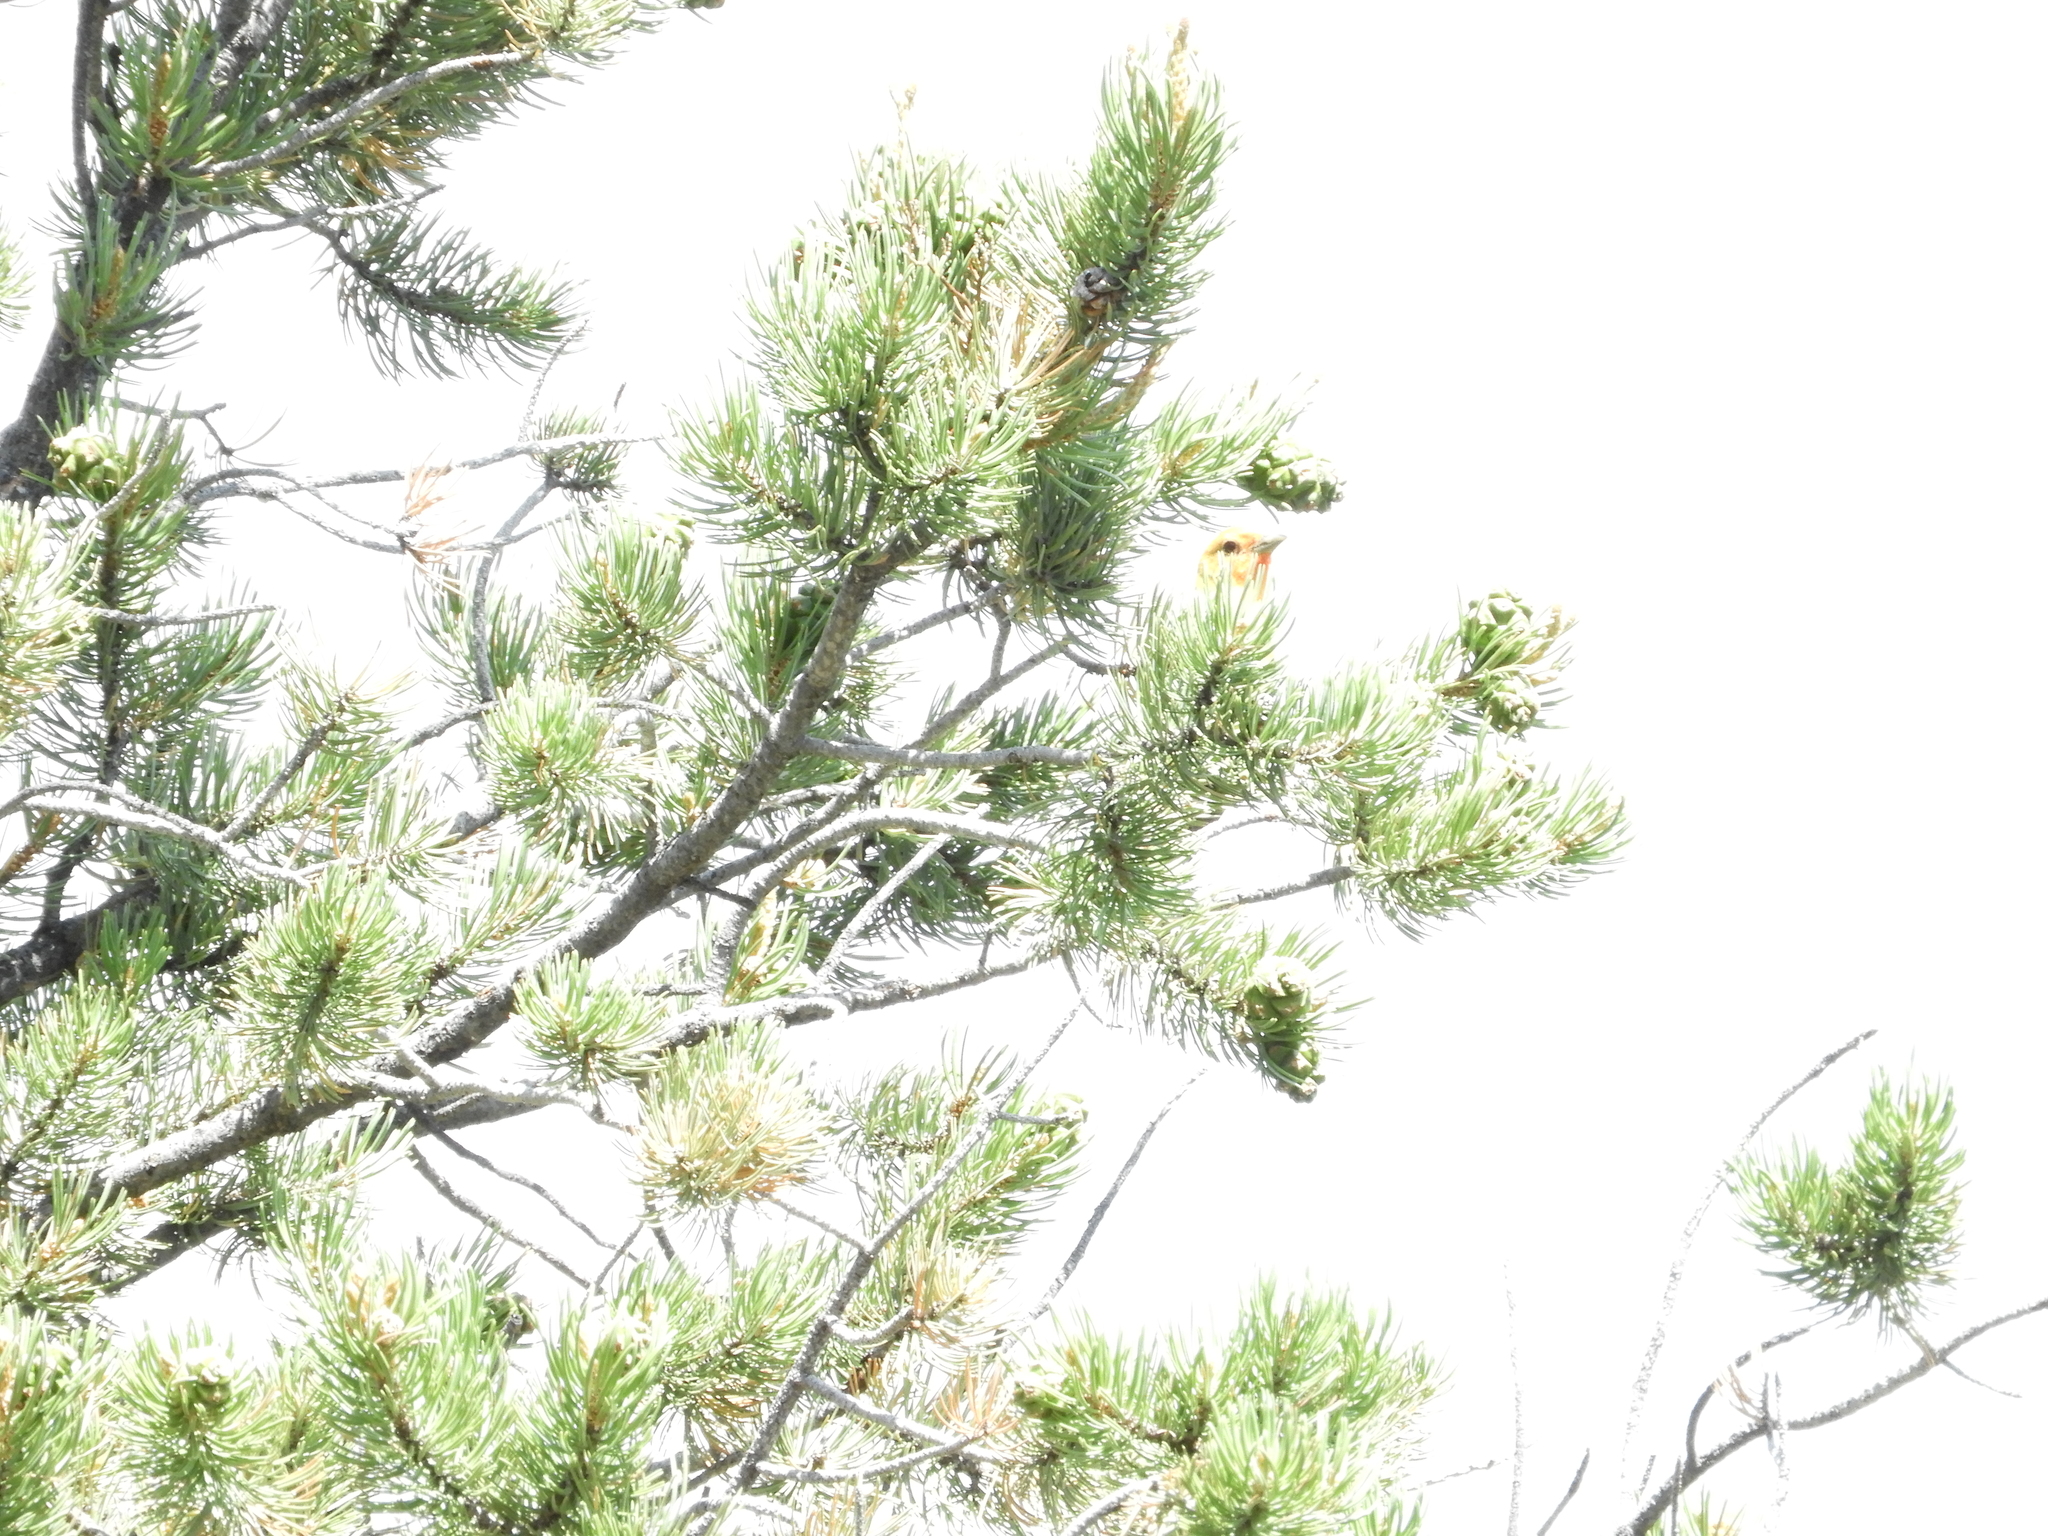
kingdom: Animalia
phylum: Chordata
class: Aves
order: Passeriformes
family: Cardinalidae
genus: Piranga
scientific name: Piranga ludoviciana
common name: Western tanager
